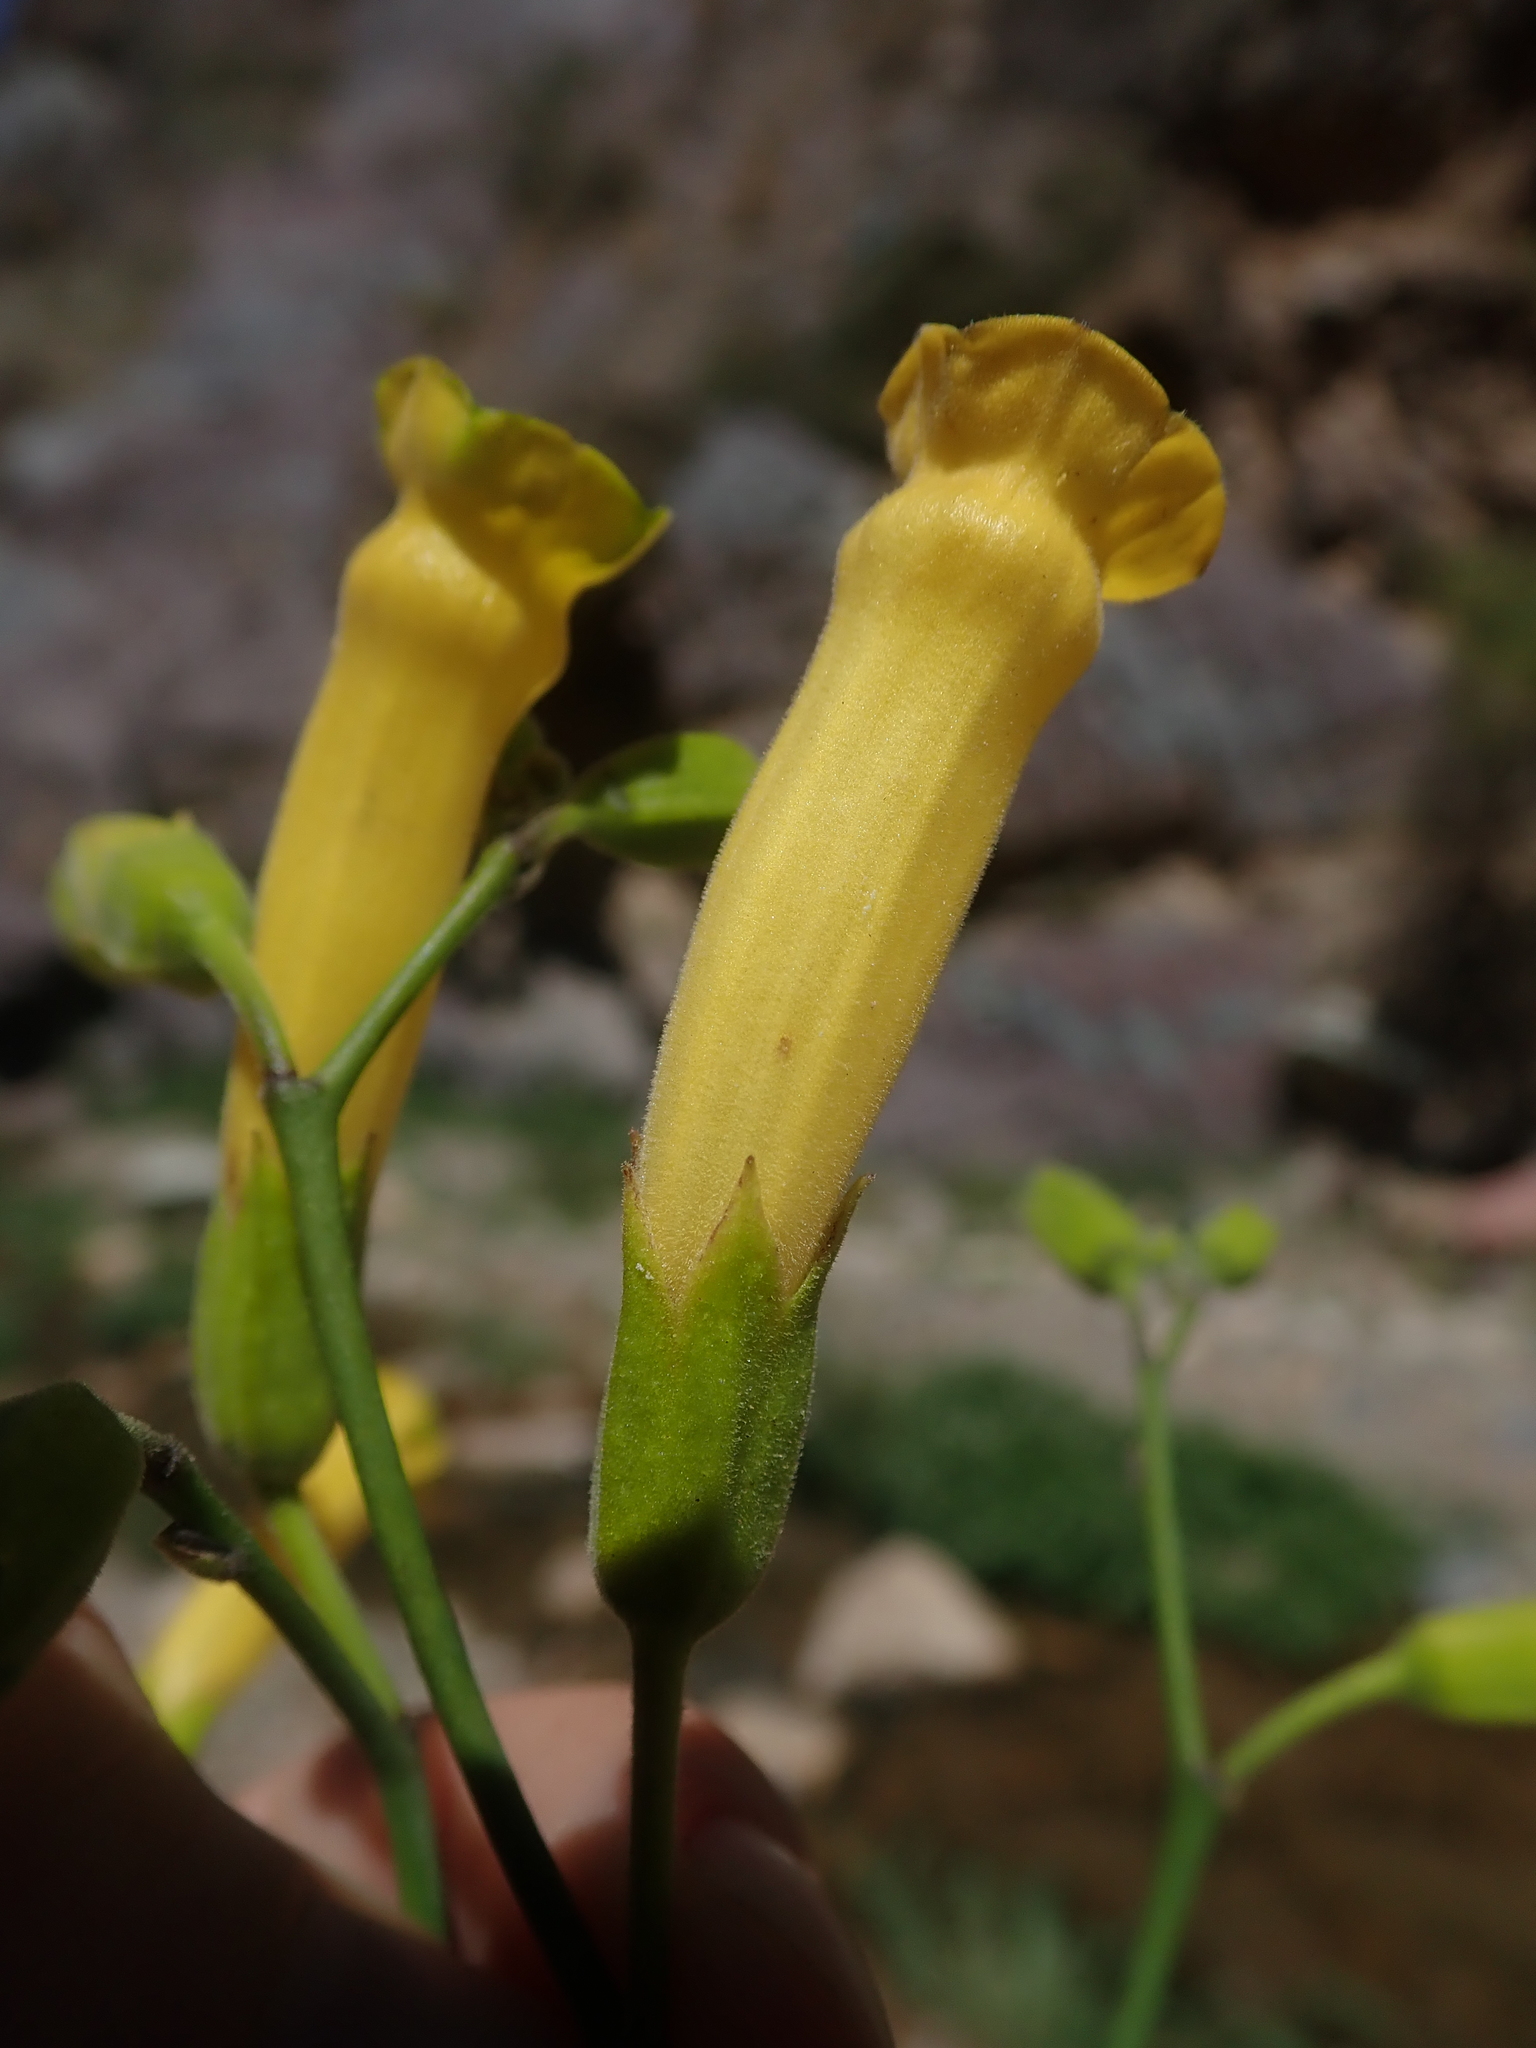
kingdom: Plantae
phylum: Tracheophyta
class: Magnoliopsida
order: Solanales
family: Solanaceae
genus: Nicotiana
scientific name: Nicotiana glauca
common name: Tree tobacco
